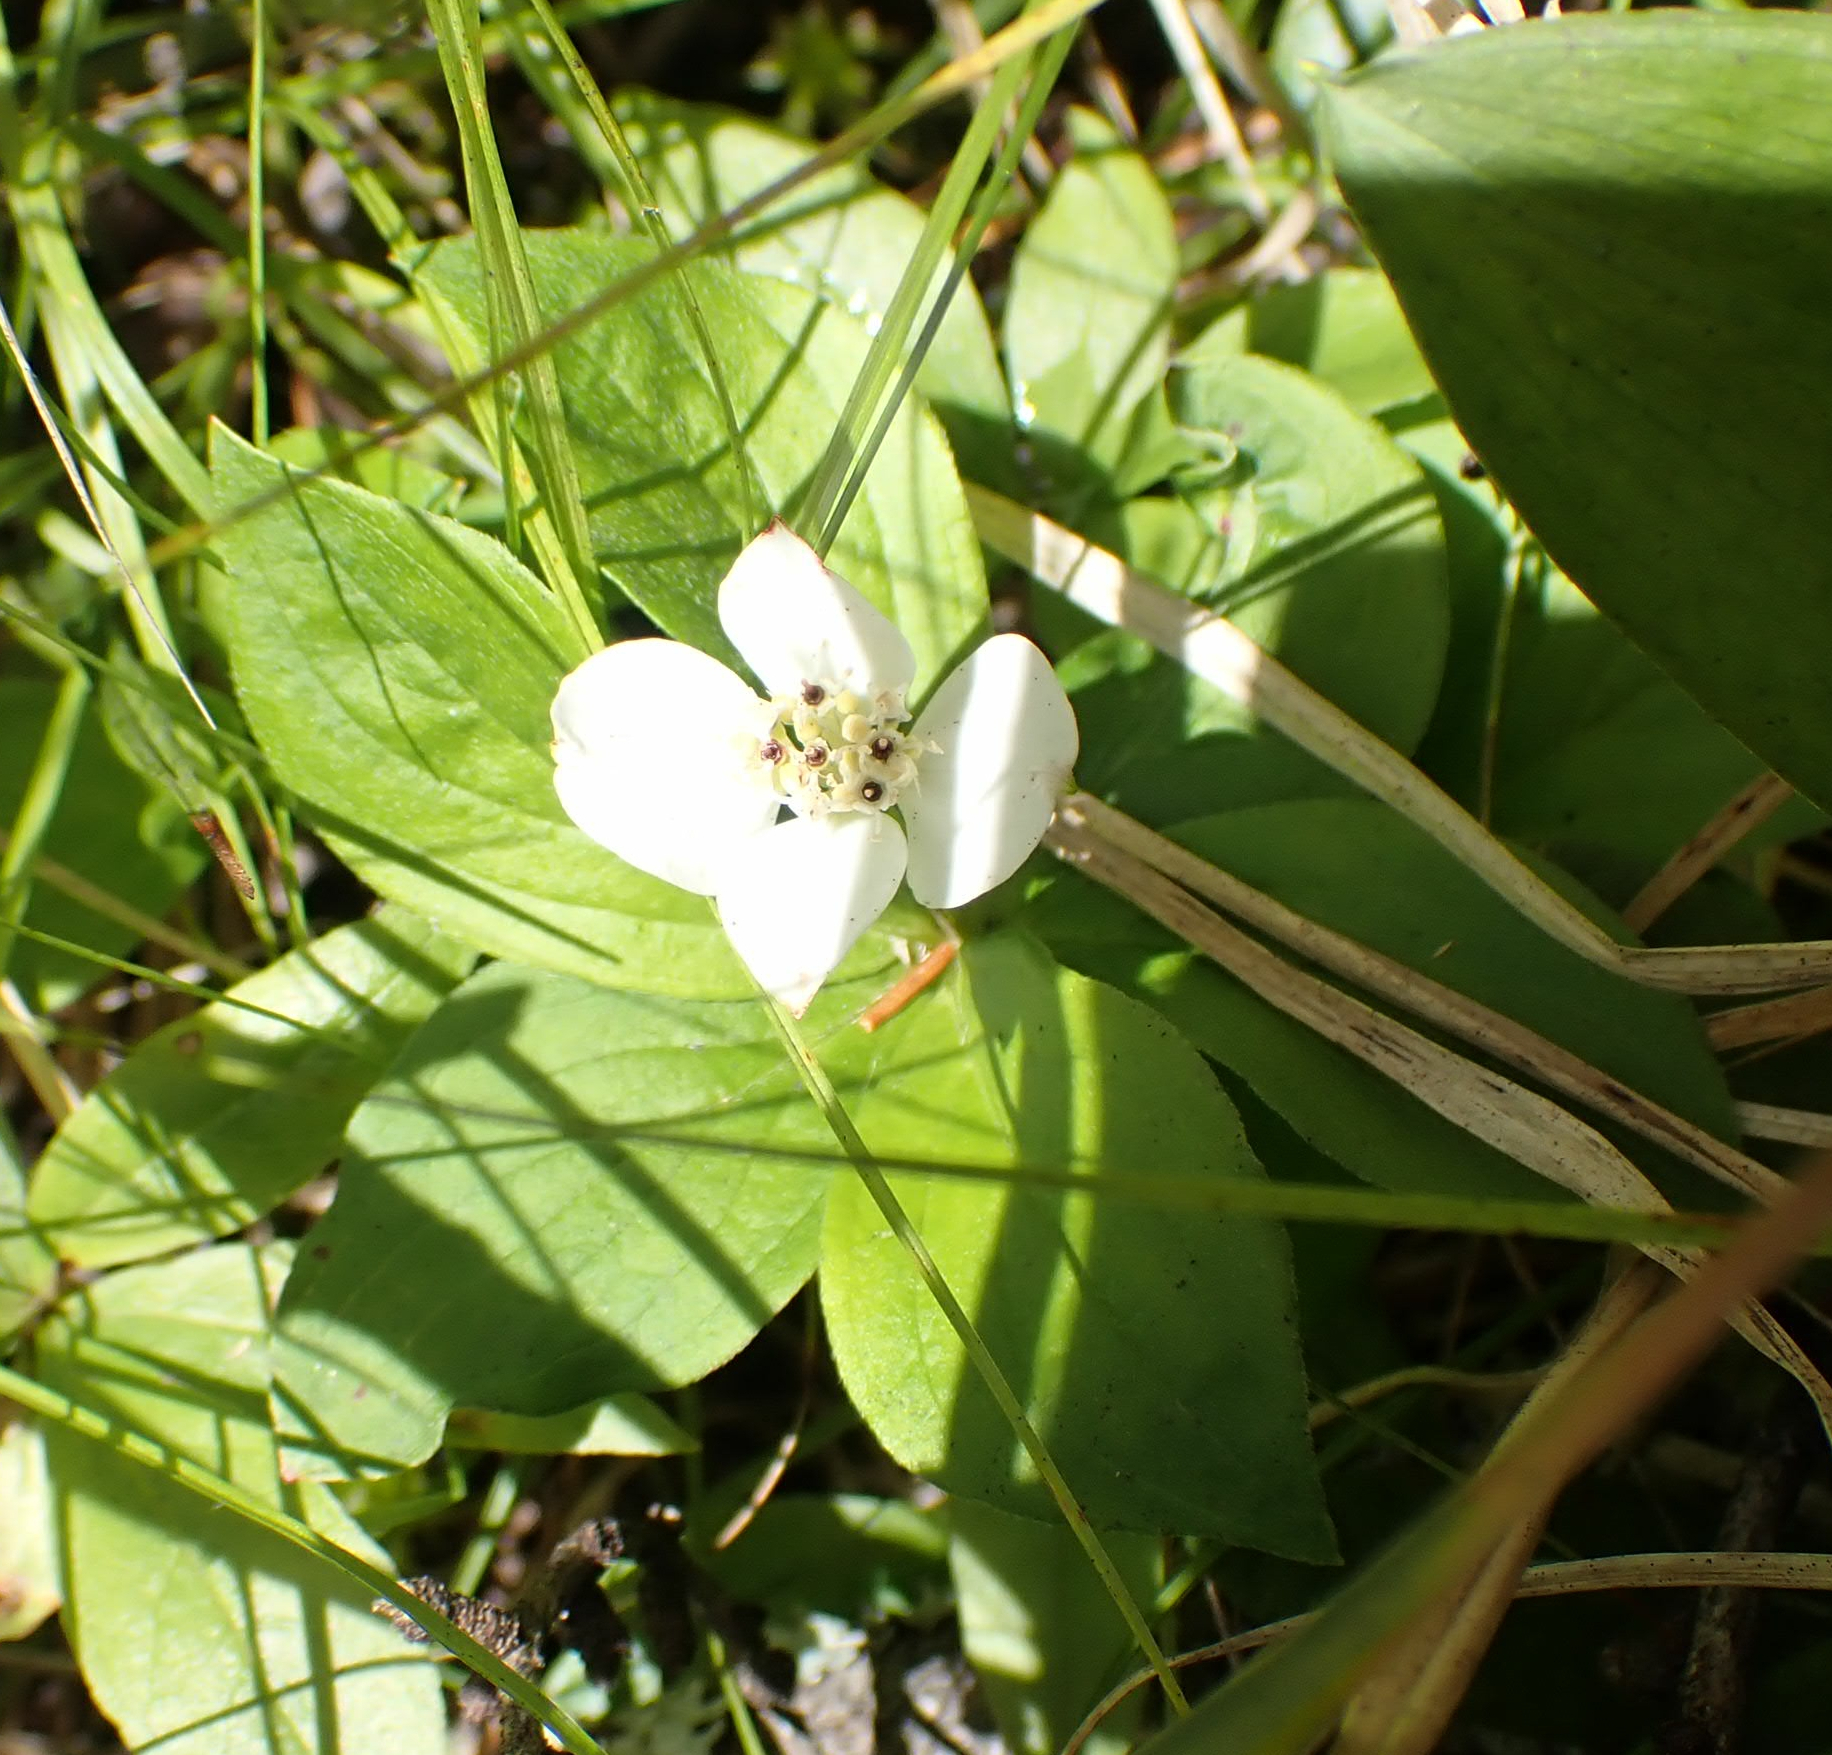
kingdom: Plantae
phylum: Tracheophyta
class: Magnoliopsida
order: Cornales
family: Cornaceae
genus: Cornus
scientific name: Cornus canadensis
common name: Creeping dogwood
